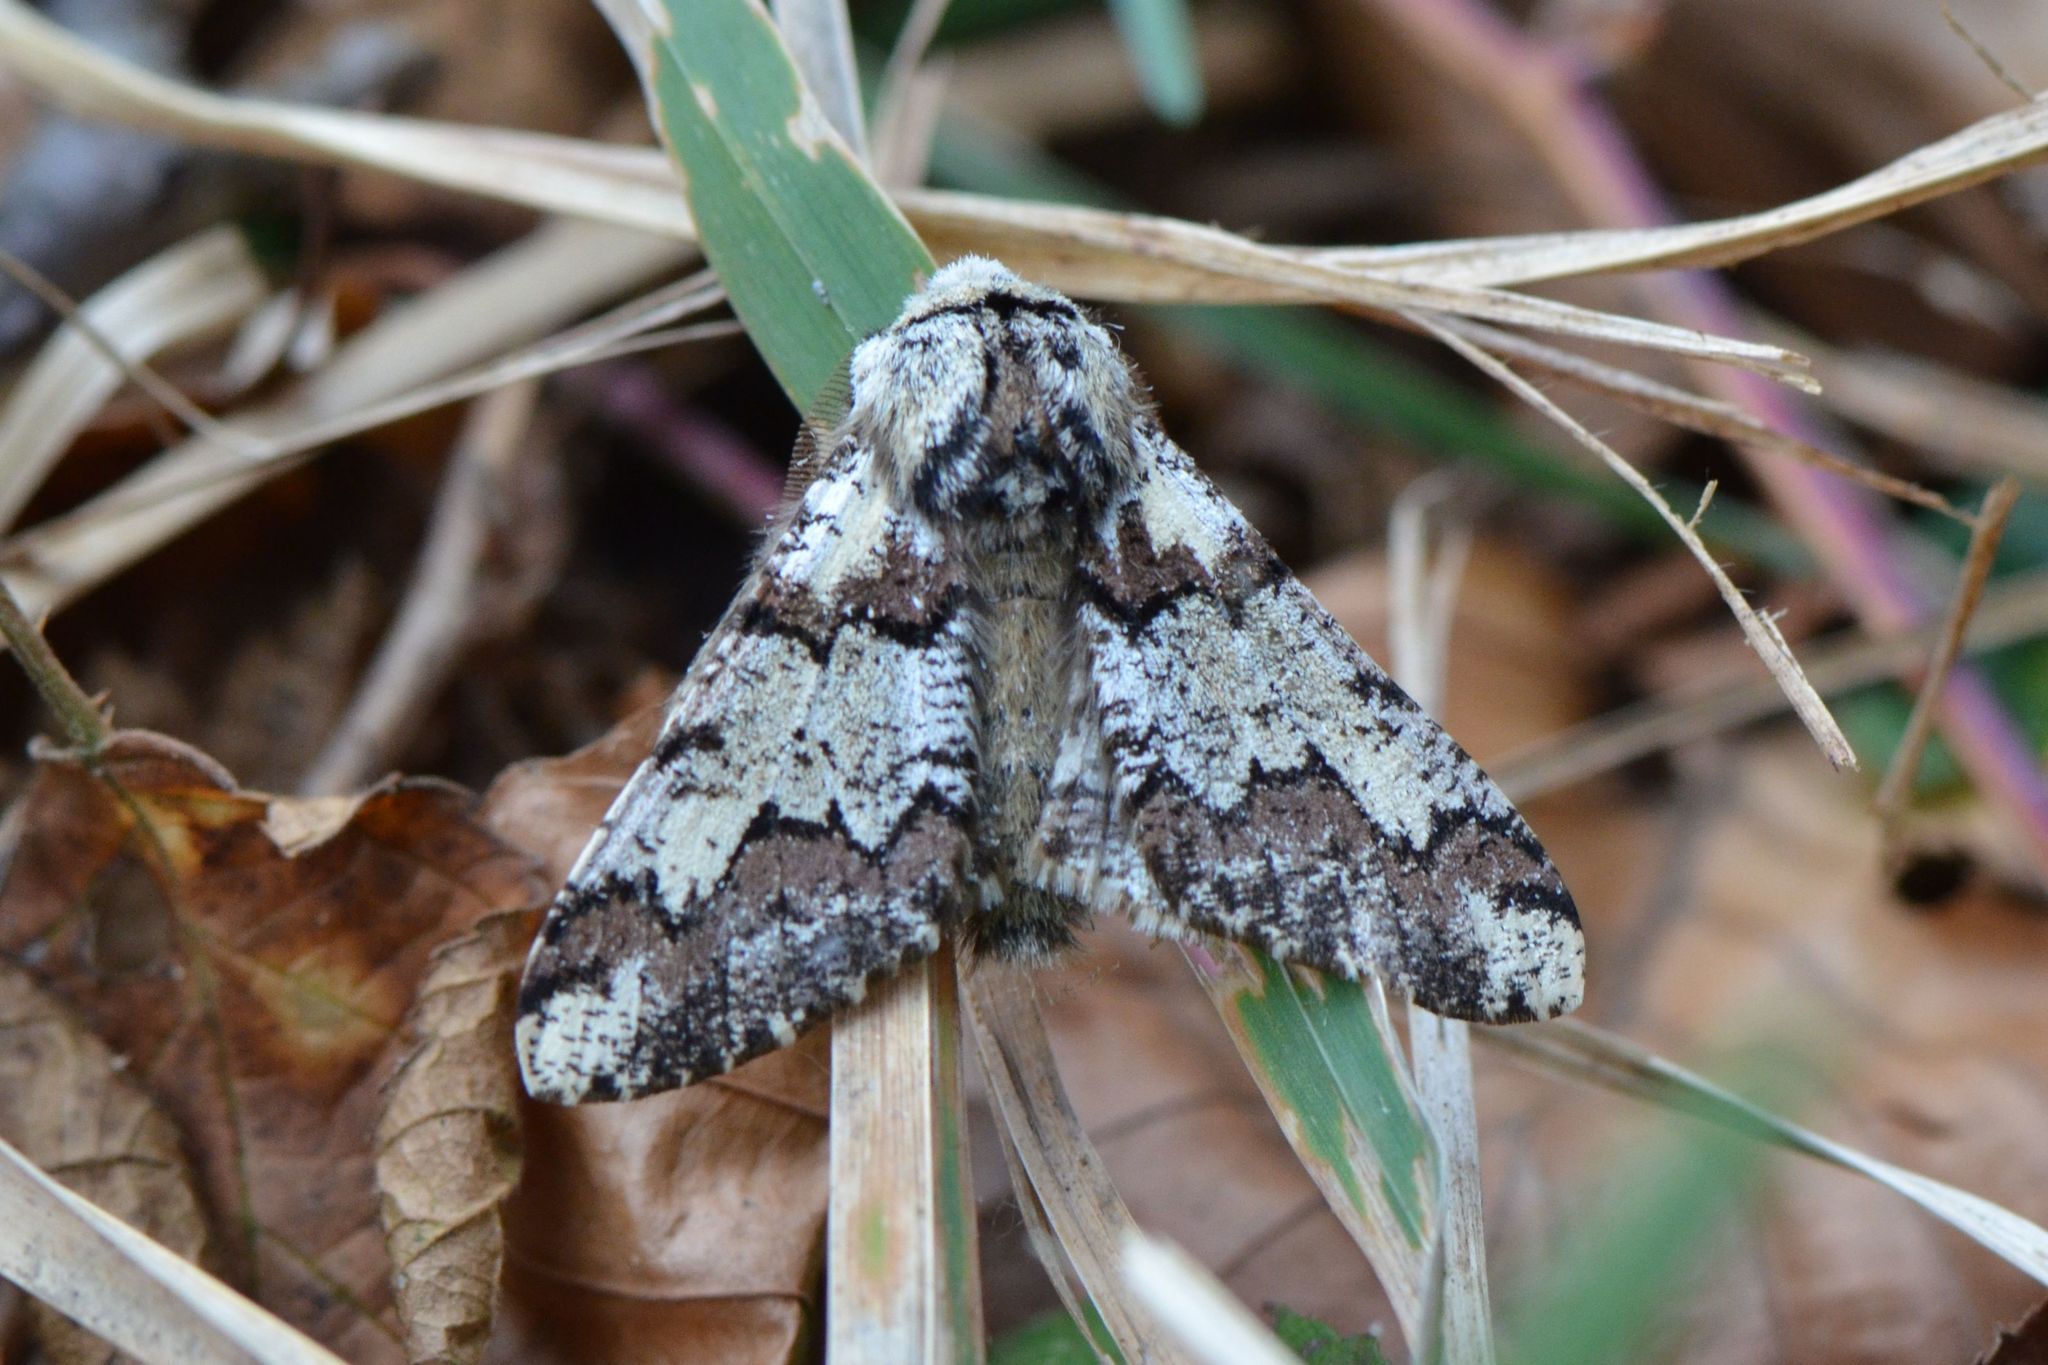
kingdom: Animalia
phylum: Arthropoda
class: Insecta
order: Lepidoptera
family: Geometridae
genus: Biston
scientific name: Biston strataria
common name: Oak beauty
